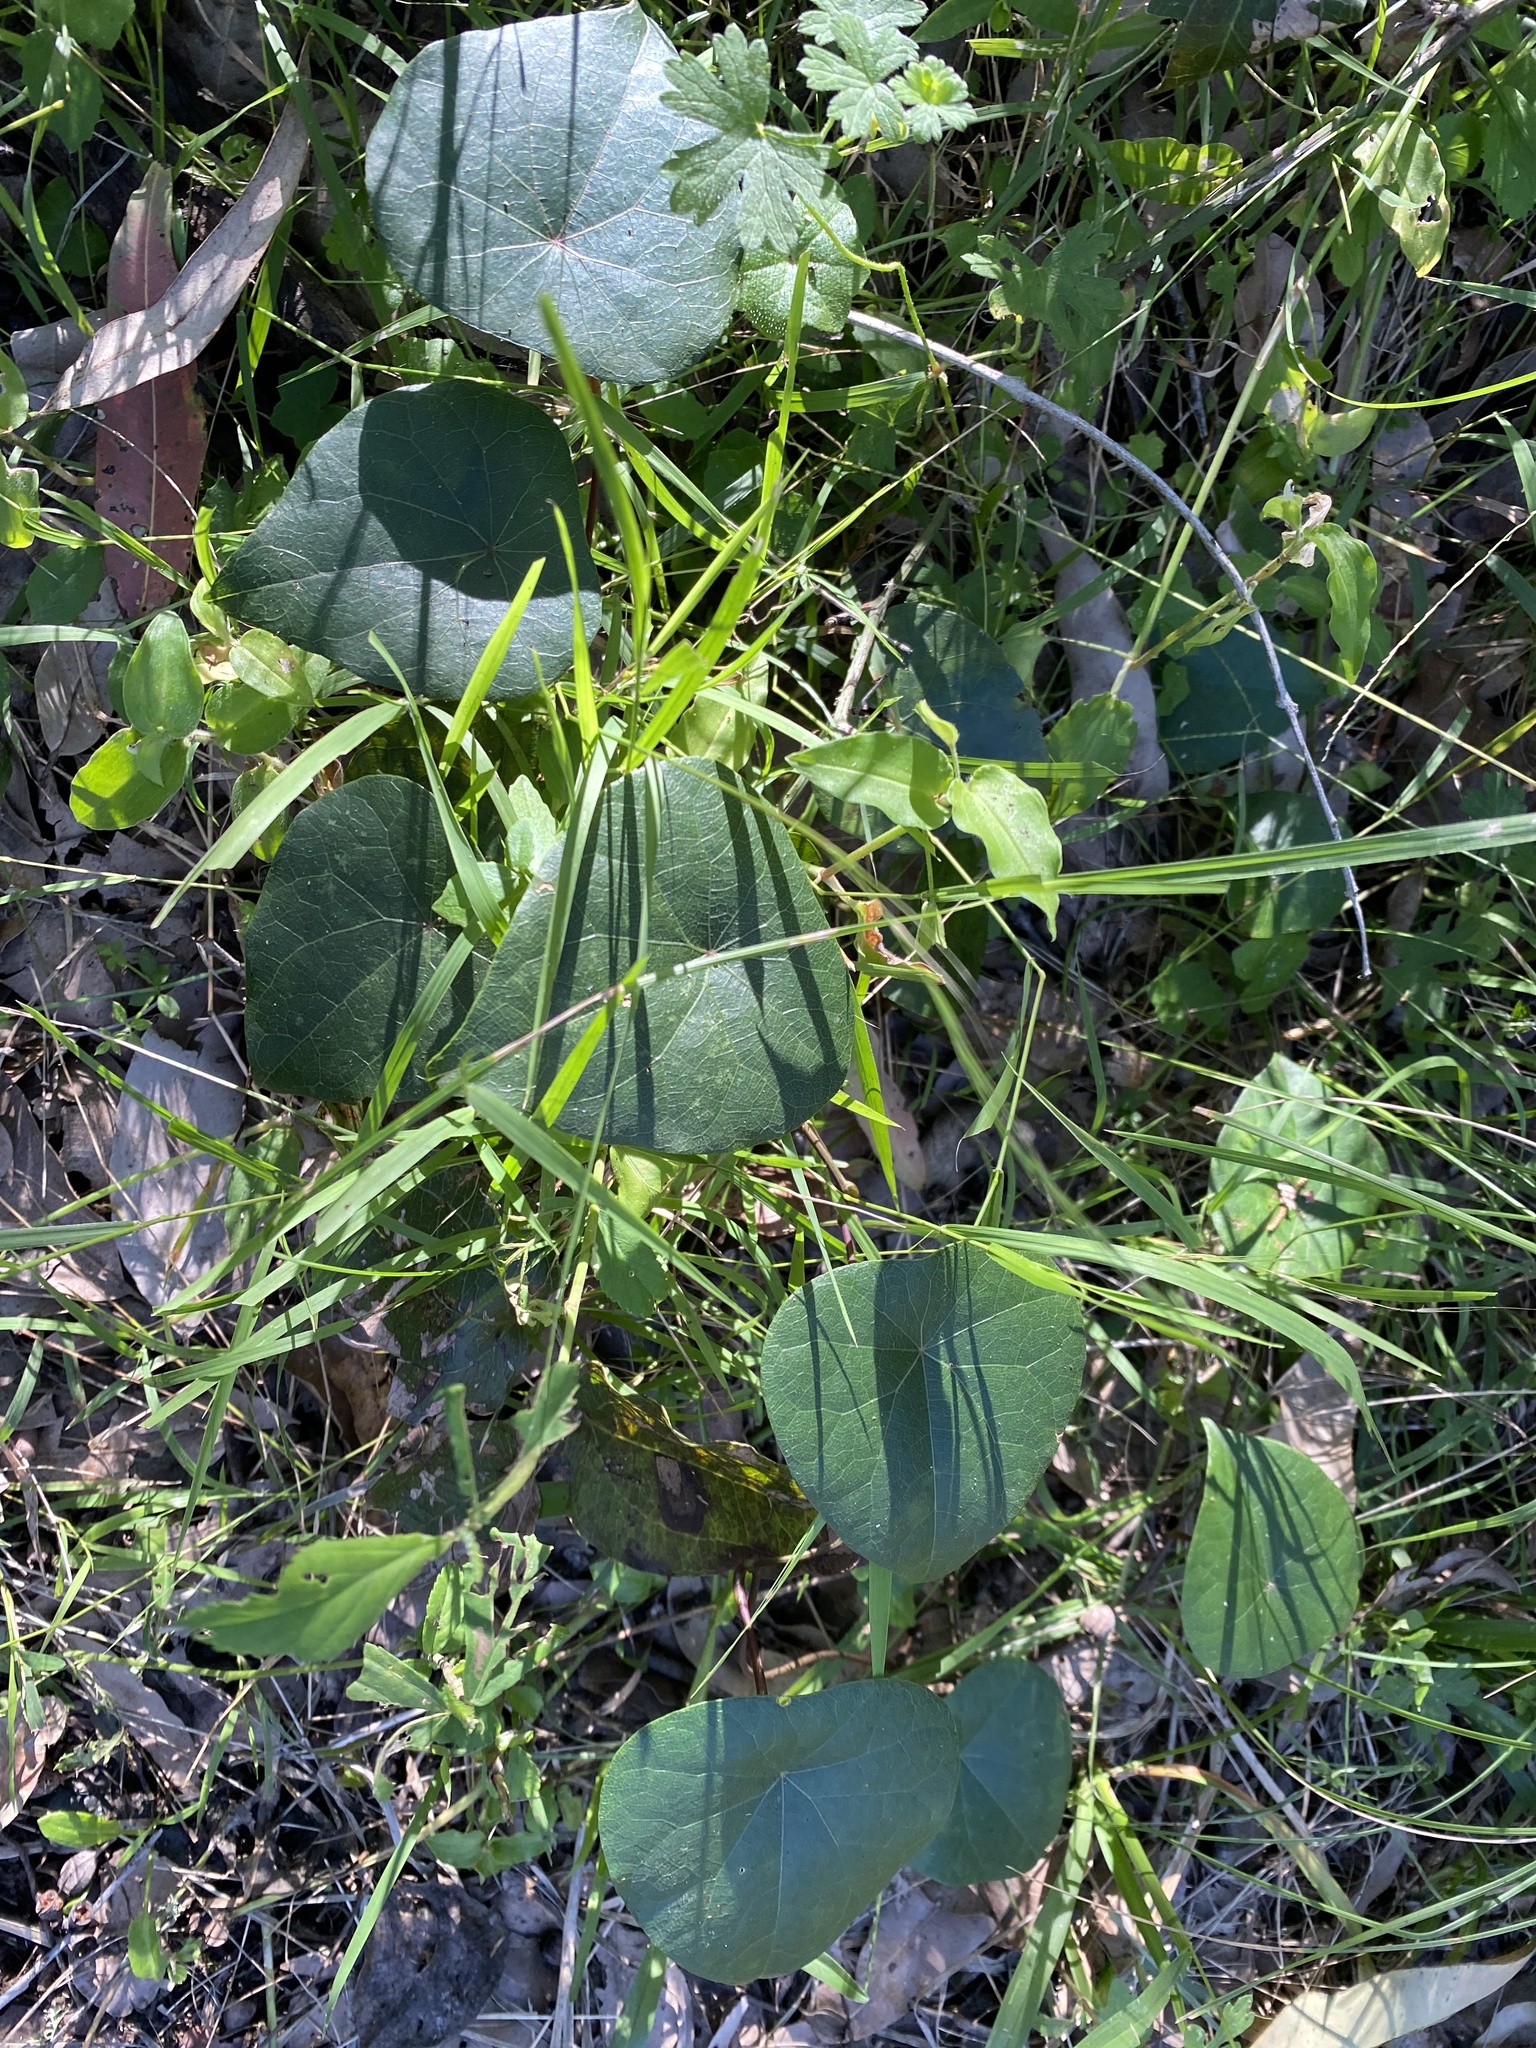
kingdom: Plantae
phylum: Tracheophyta
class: Magnoliopsida
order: Ranunculales
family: Menispermaceae
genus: Stephania
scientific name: Stephania japonica
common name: Snake vine
